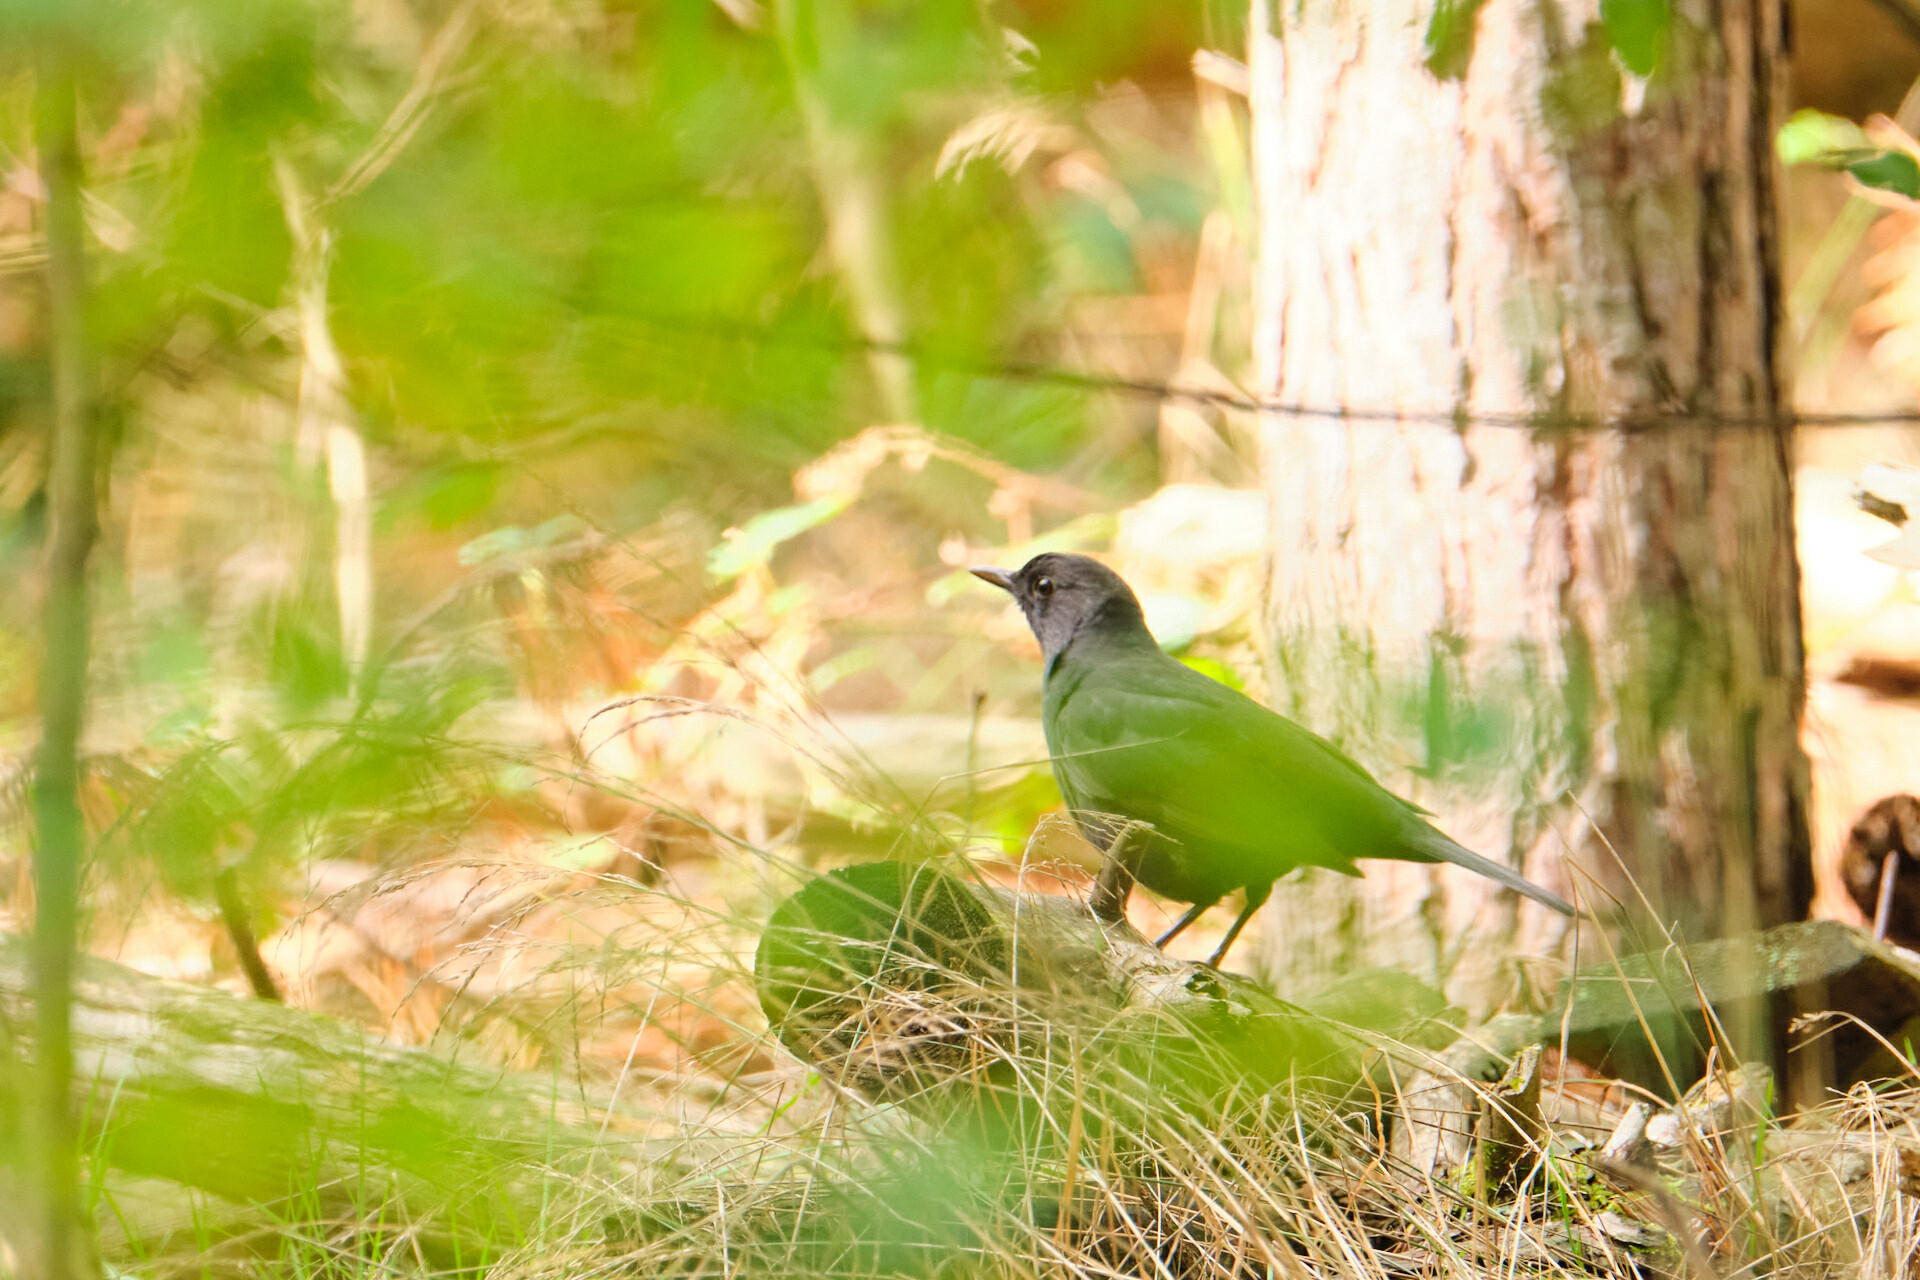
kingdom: Animalia
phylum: Chordata
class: Aves
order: Passeriformes
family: Turdidae
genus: Turdus
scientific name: Turdus merula
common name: Common blackbird
